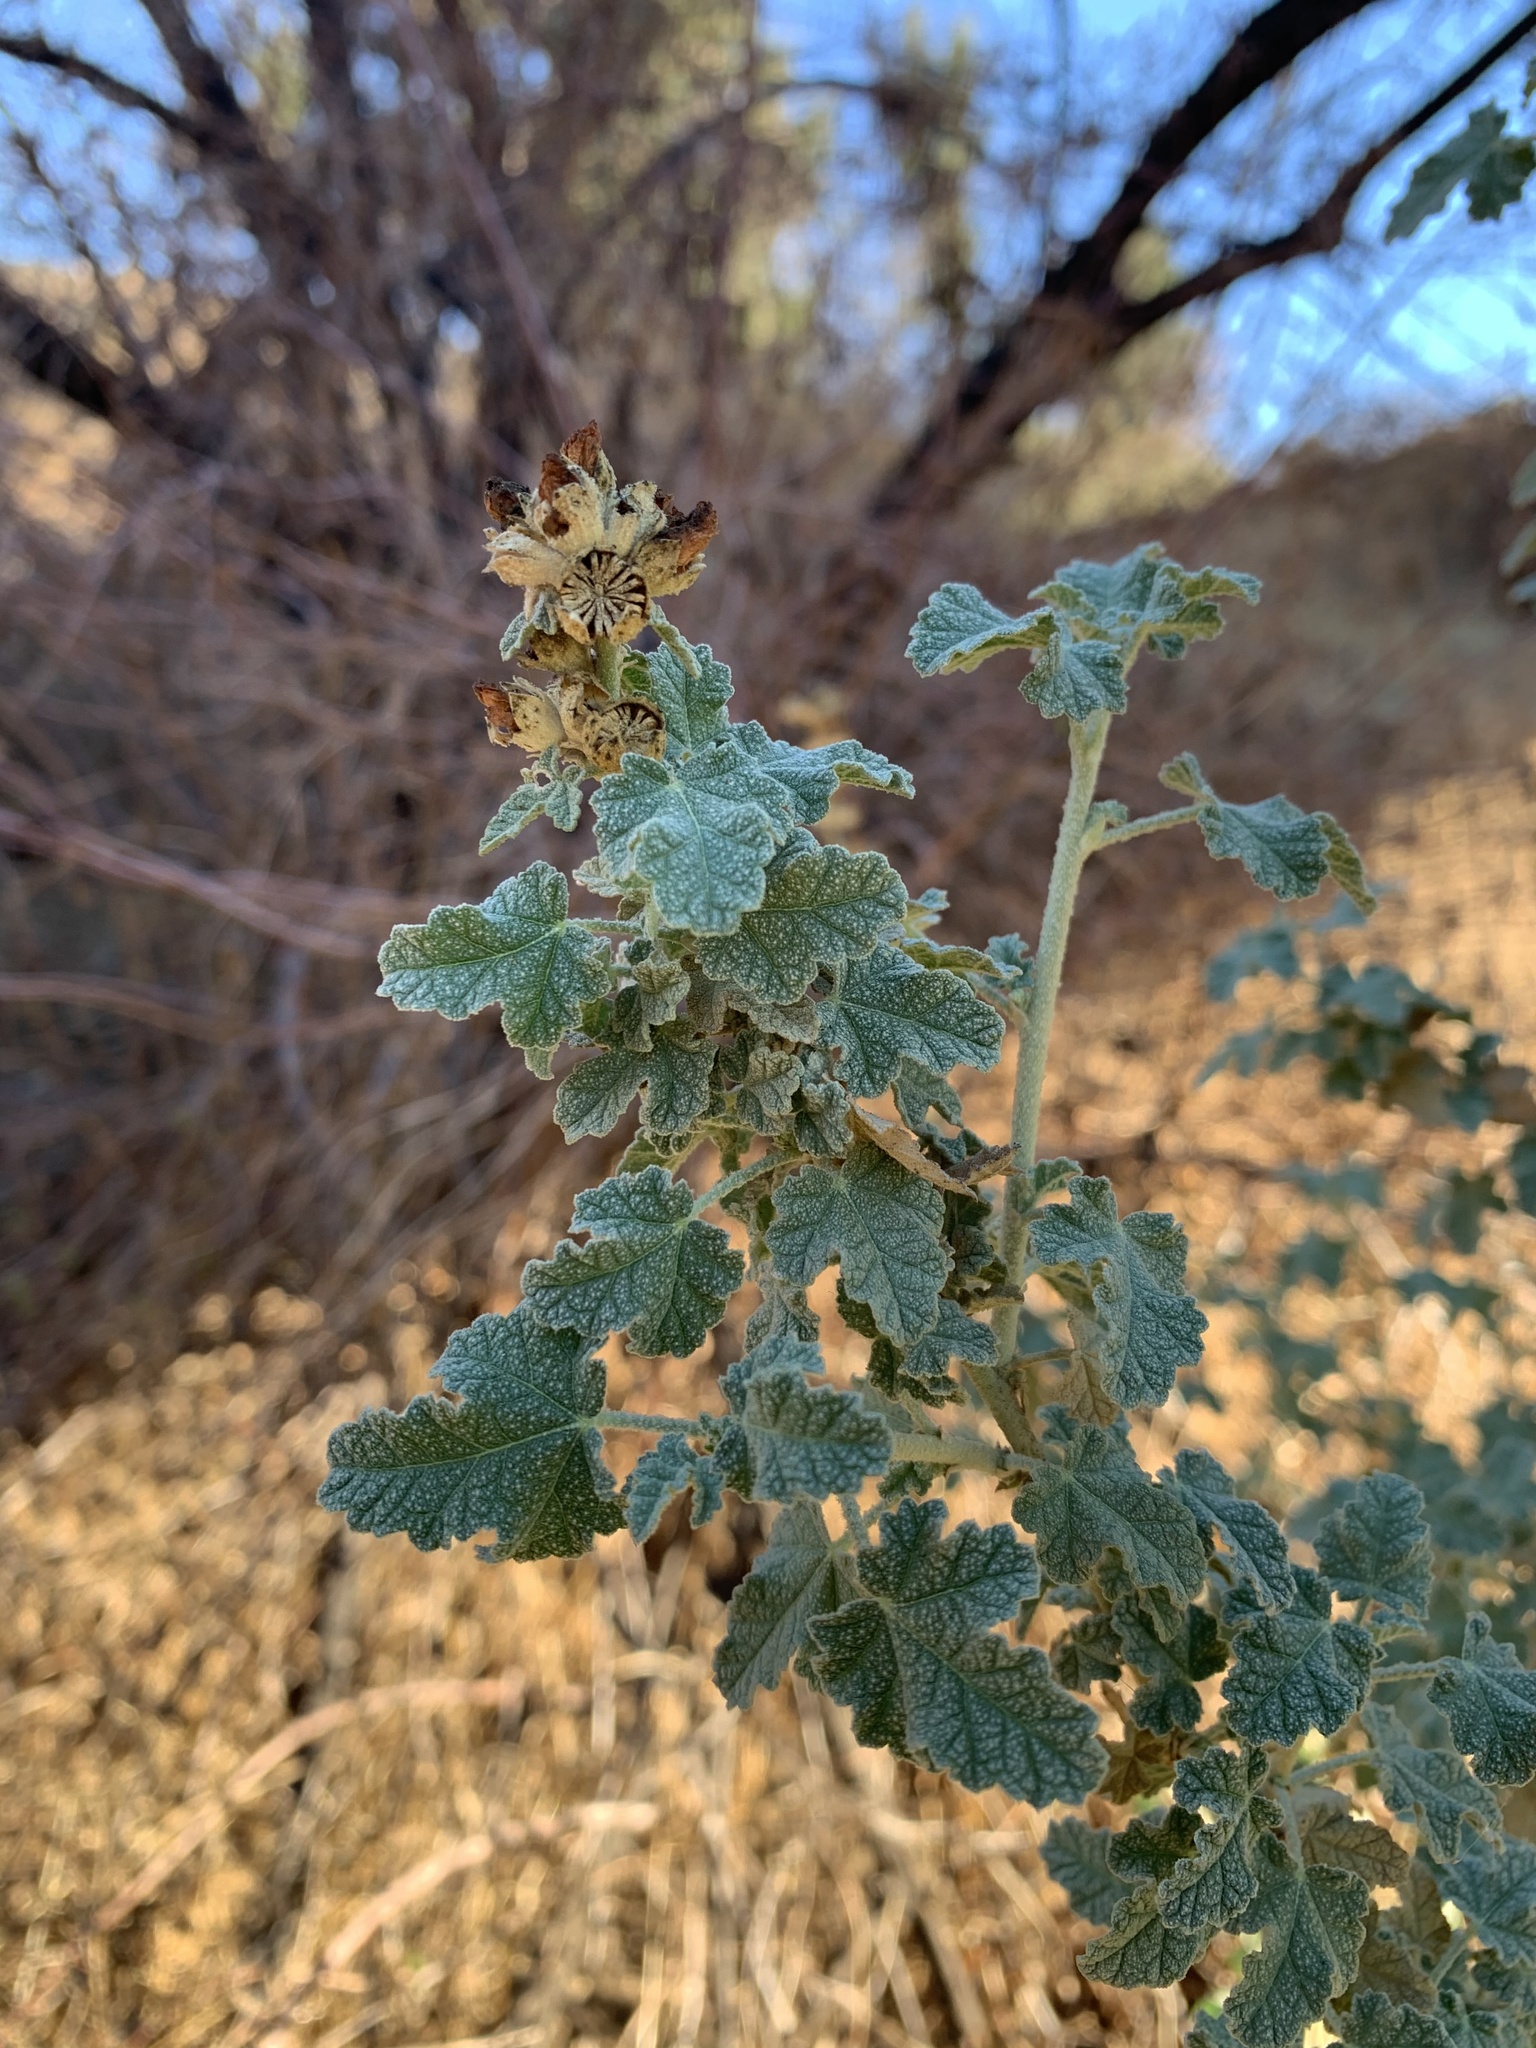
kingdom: Plantae
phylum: Tracheophyta
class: Magnoliopsida
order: Malvales
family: Malvaceae
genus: Malacothamnus
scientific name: Malacothamnus fasciculatus
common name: Sant cruz island bush-mallow
